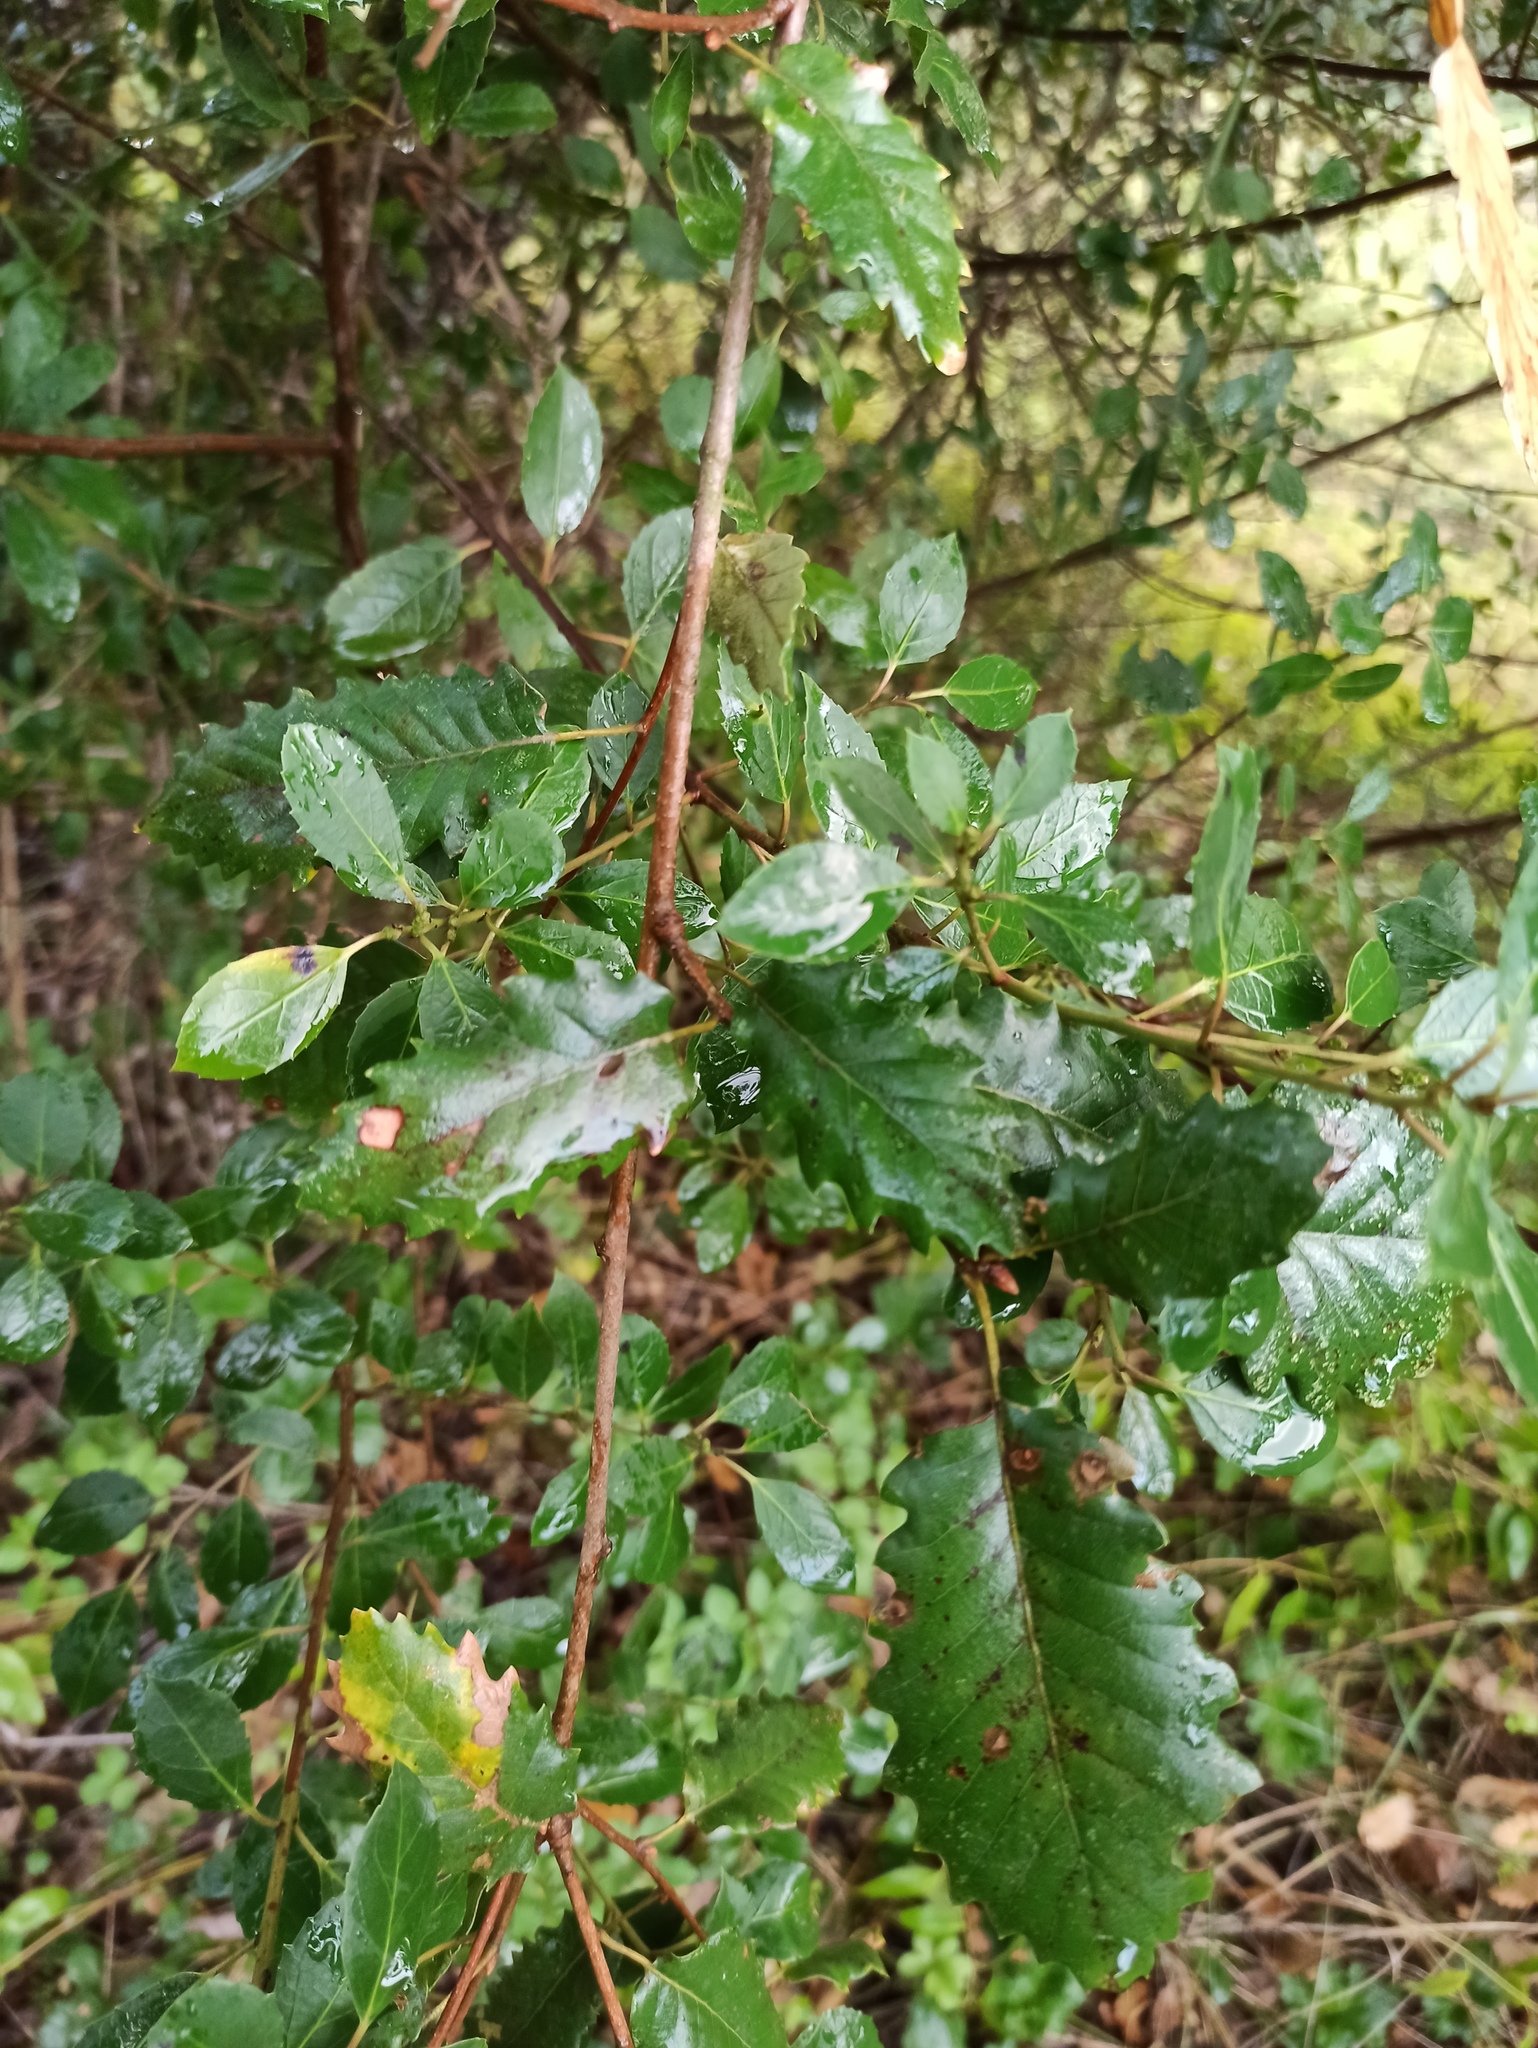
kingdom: Plantae
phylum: Tracheophyta
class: Magnoliopsida
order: Fagales
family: Fagaceae
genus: Quercus
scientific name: Quercus faginea
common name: Gall oak tree
